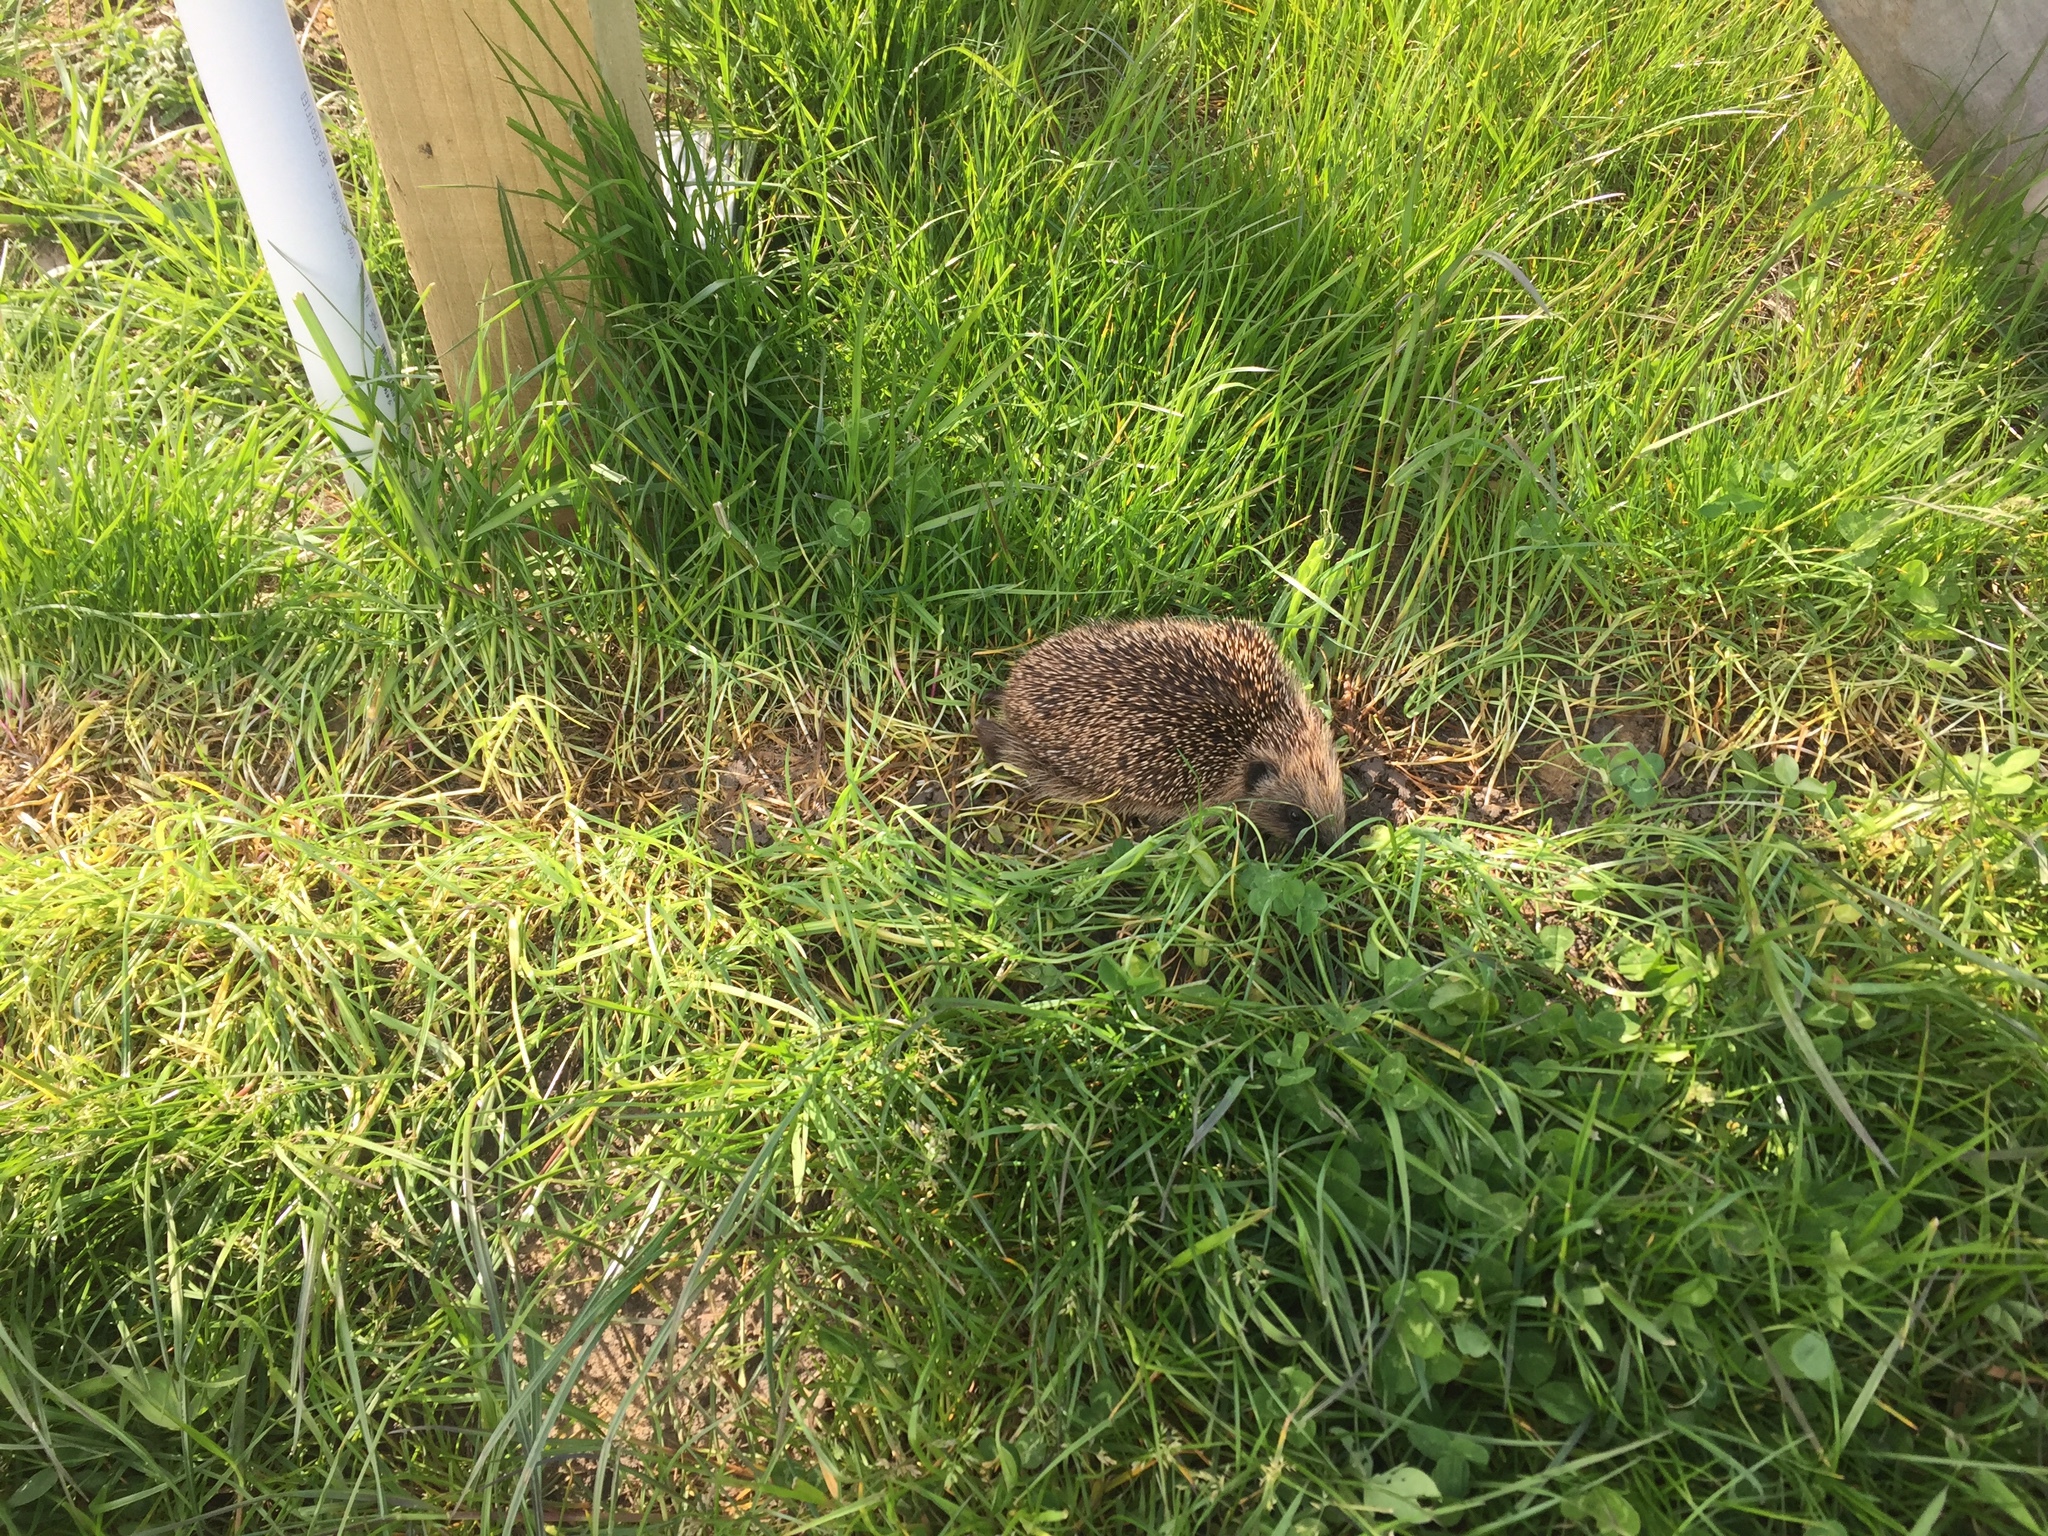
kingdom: Animalia
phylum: Chordata
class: Mammalia
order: Erinaceomorpha
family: Erinaceidae
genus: Erinaceus
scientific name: Erinaceus europaeus
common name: West european hedgehog
